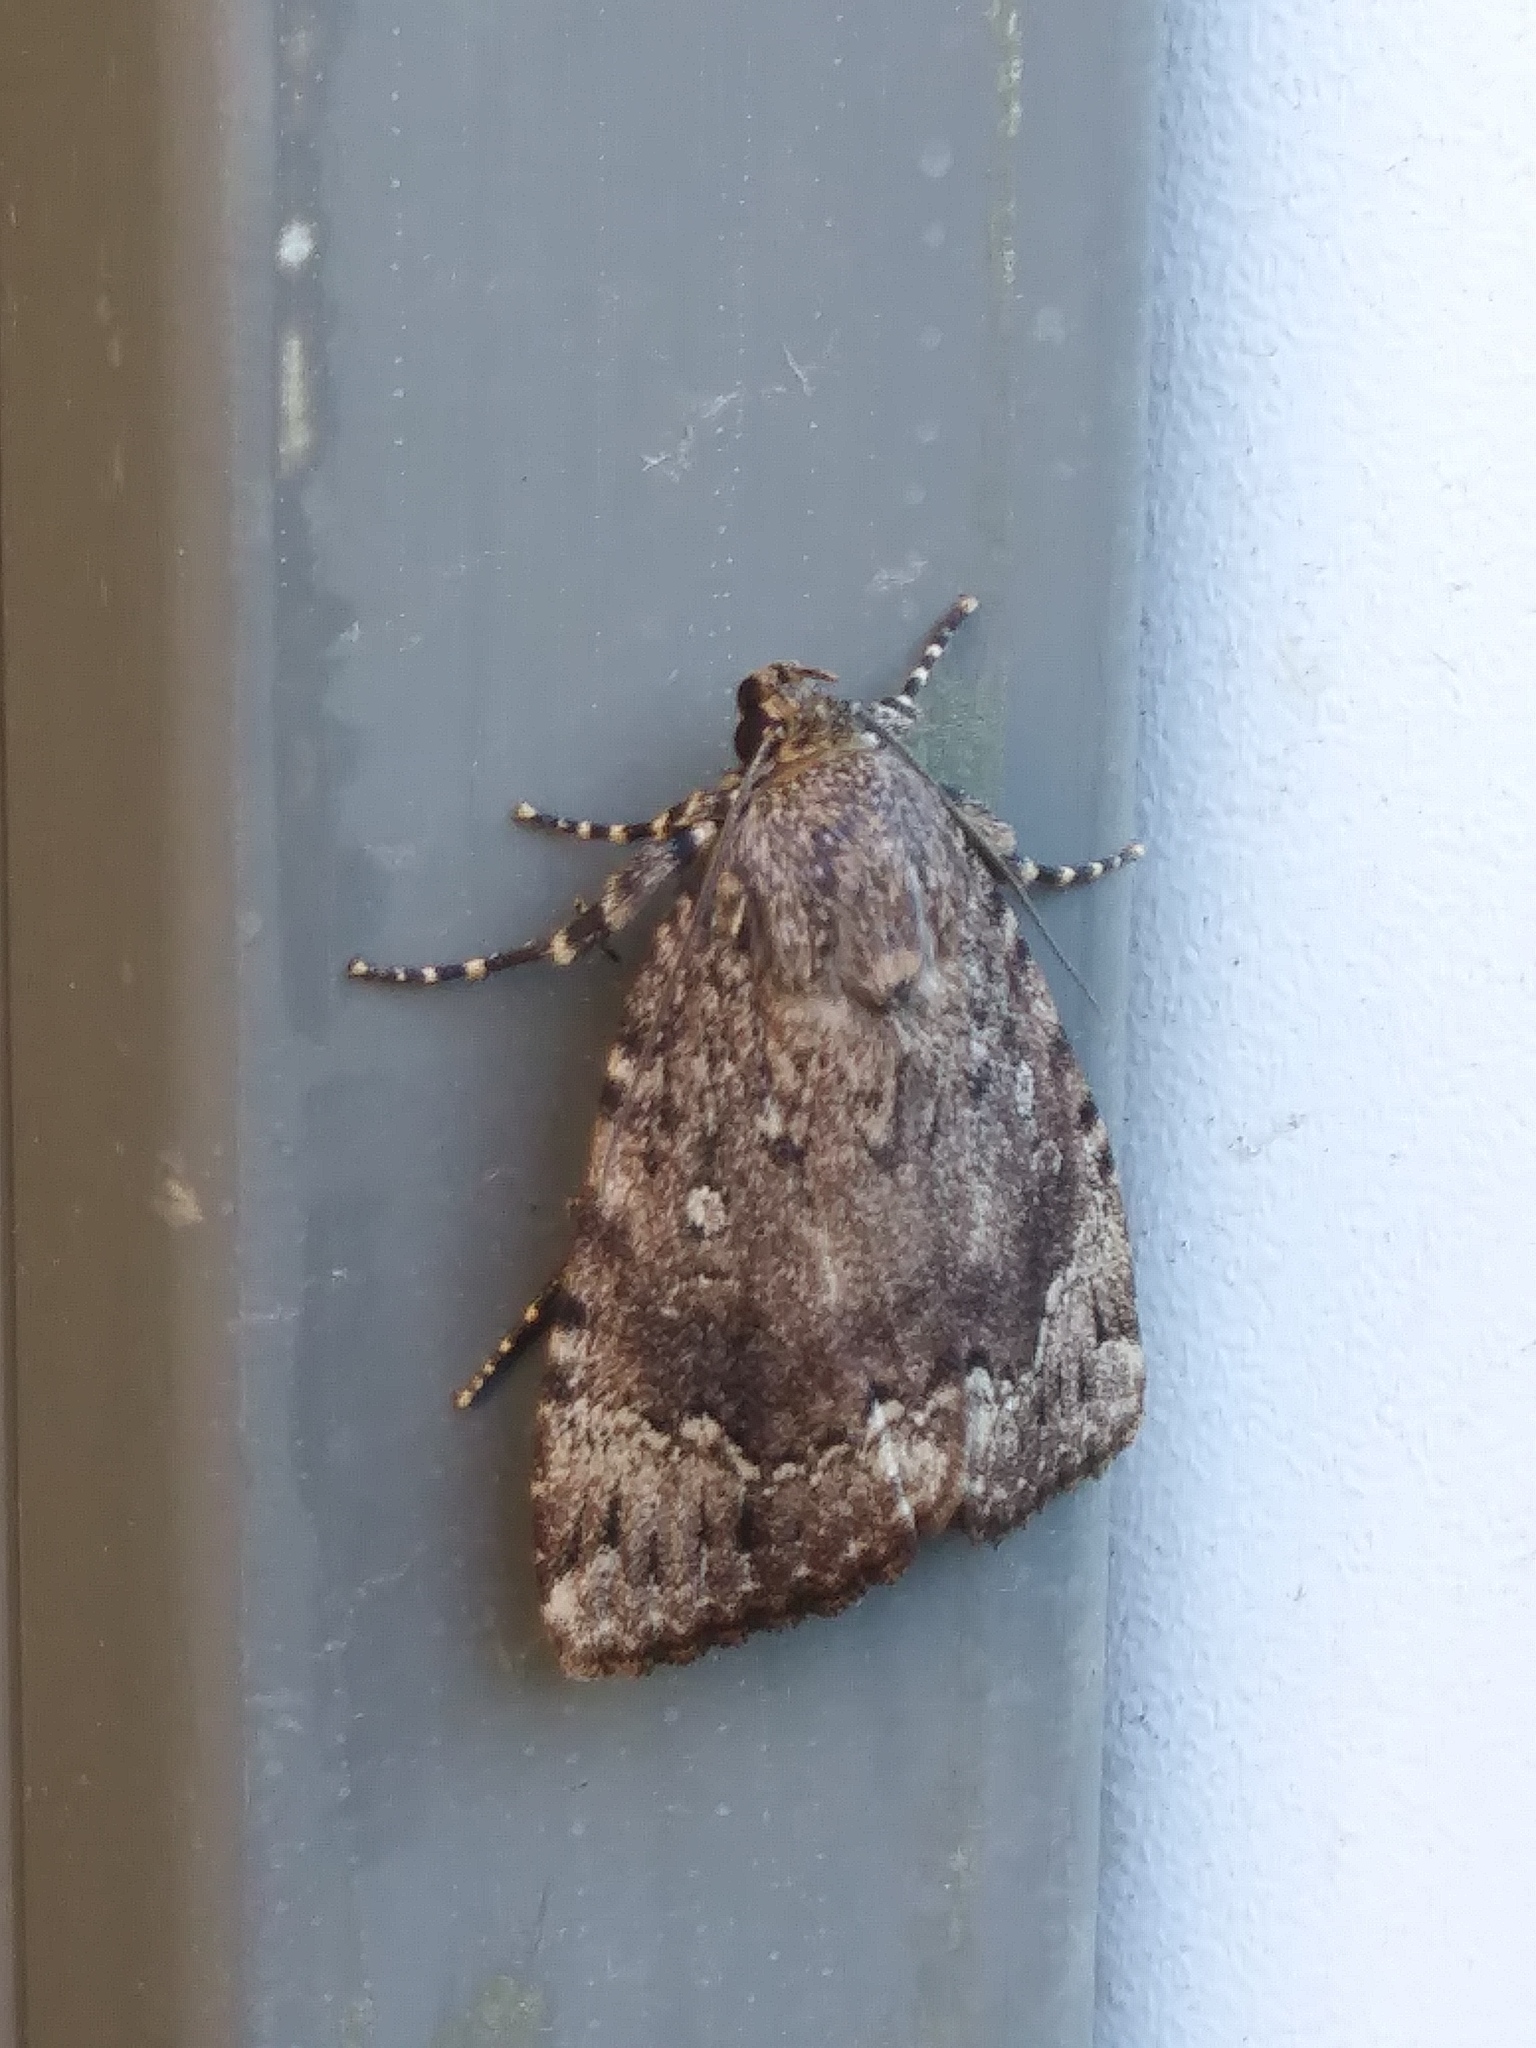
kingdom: Animalia
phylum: Arthropoda
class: Insecta
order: Lepidoptera
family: Noctuidae
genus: Amphipyra
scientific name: Amphipyra pyramidoides
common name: American copper underwing
